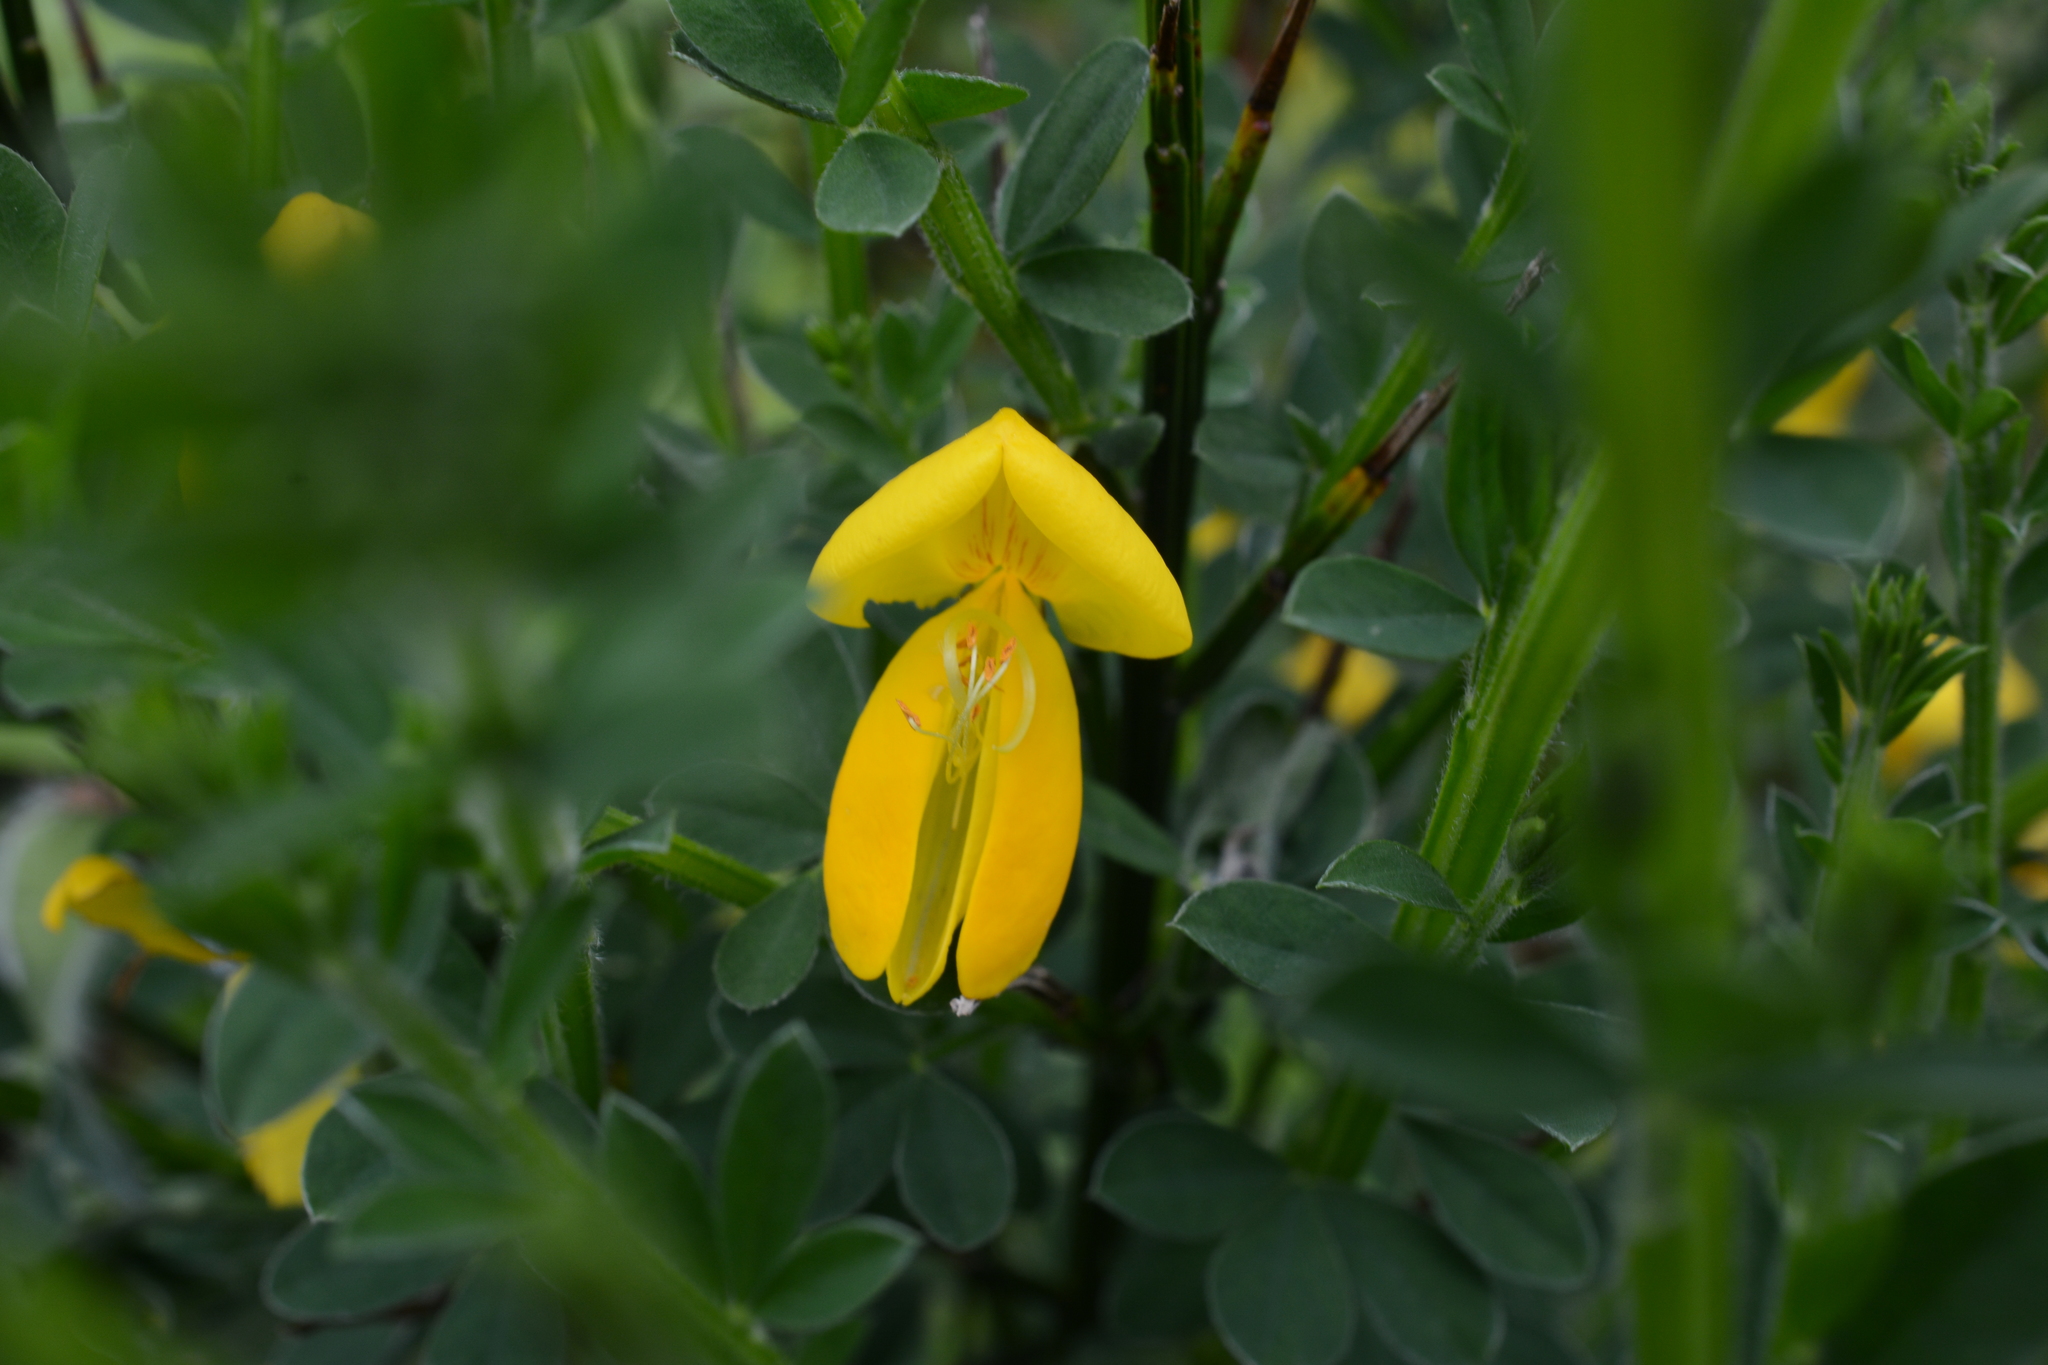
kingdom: Plantae
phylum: Tracheophyta
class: Magnoliopsida
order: Fabales
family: Fabaceae
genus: Cytisus
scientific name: Cytisus scoparius
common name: Scotch broom
